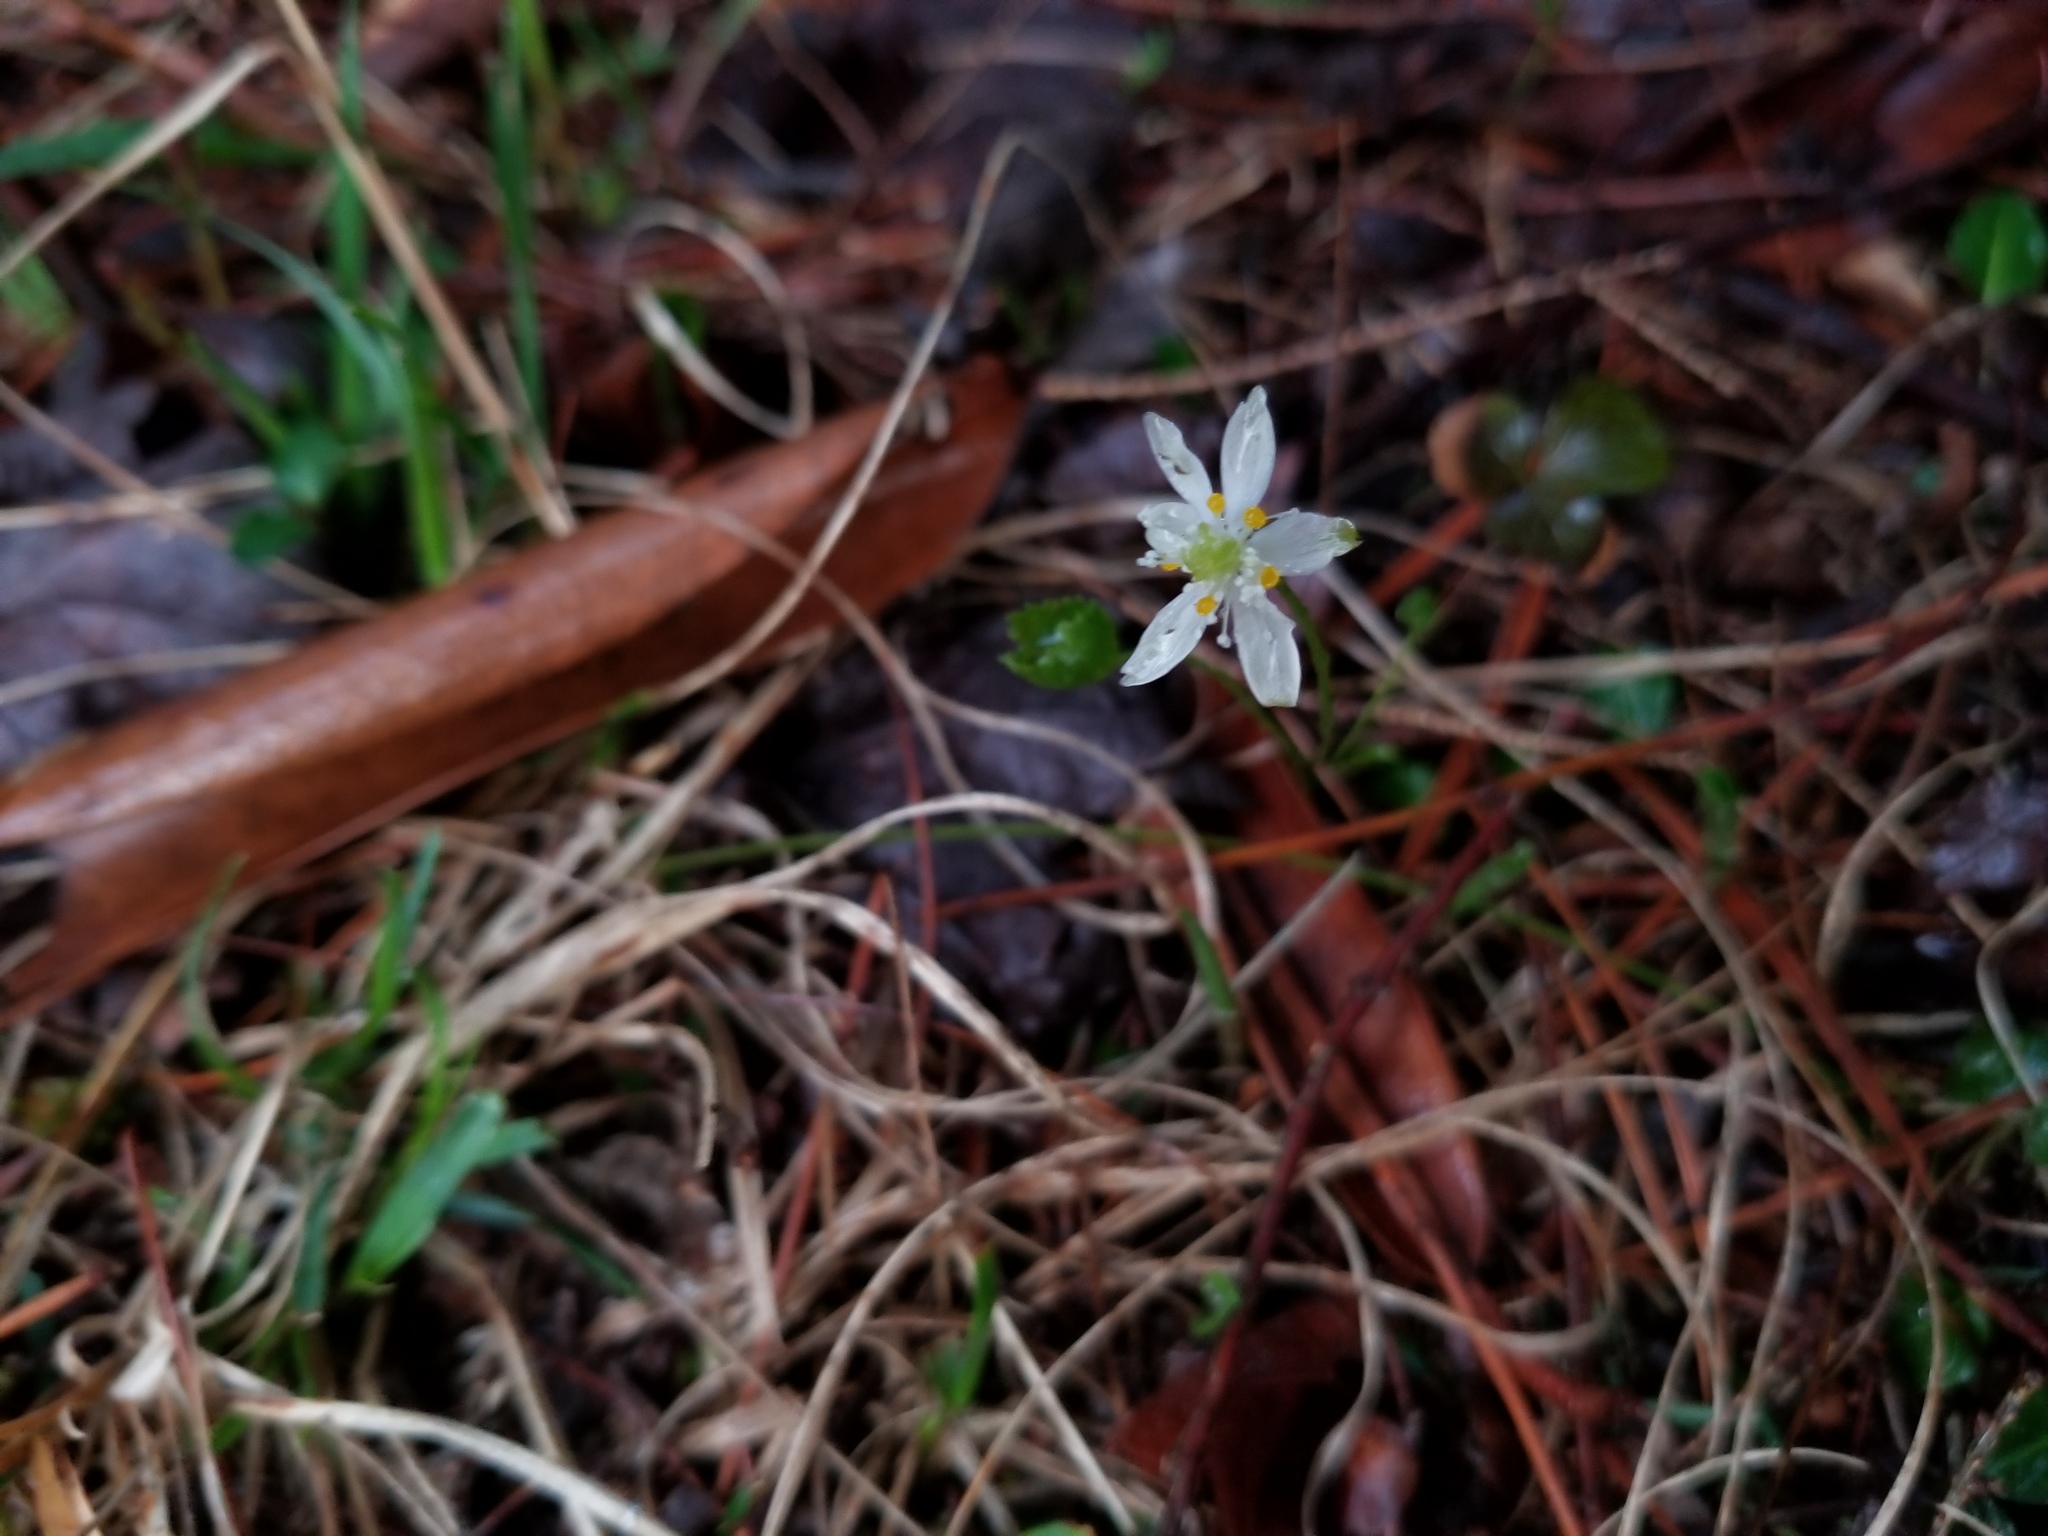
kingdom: Plantae
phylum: Tracheophyta
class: Magnoliopsida
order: Ranunculales
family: Ranunculaceae
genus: Coptis
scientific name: Coptis trifolia
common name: Canker-root
